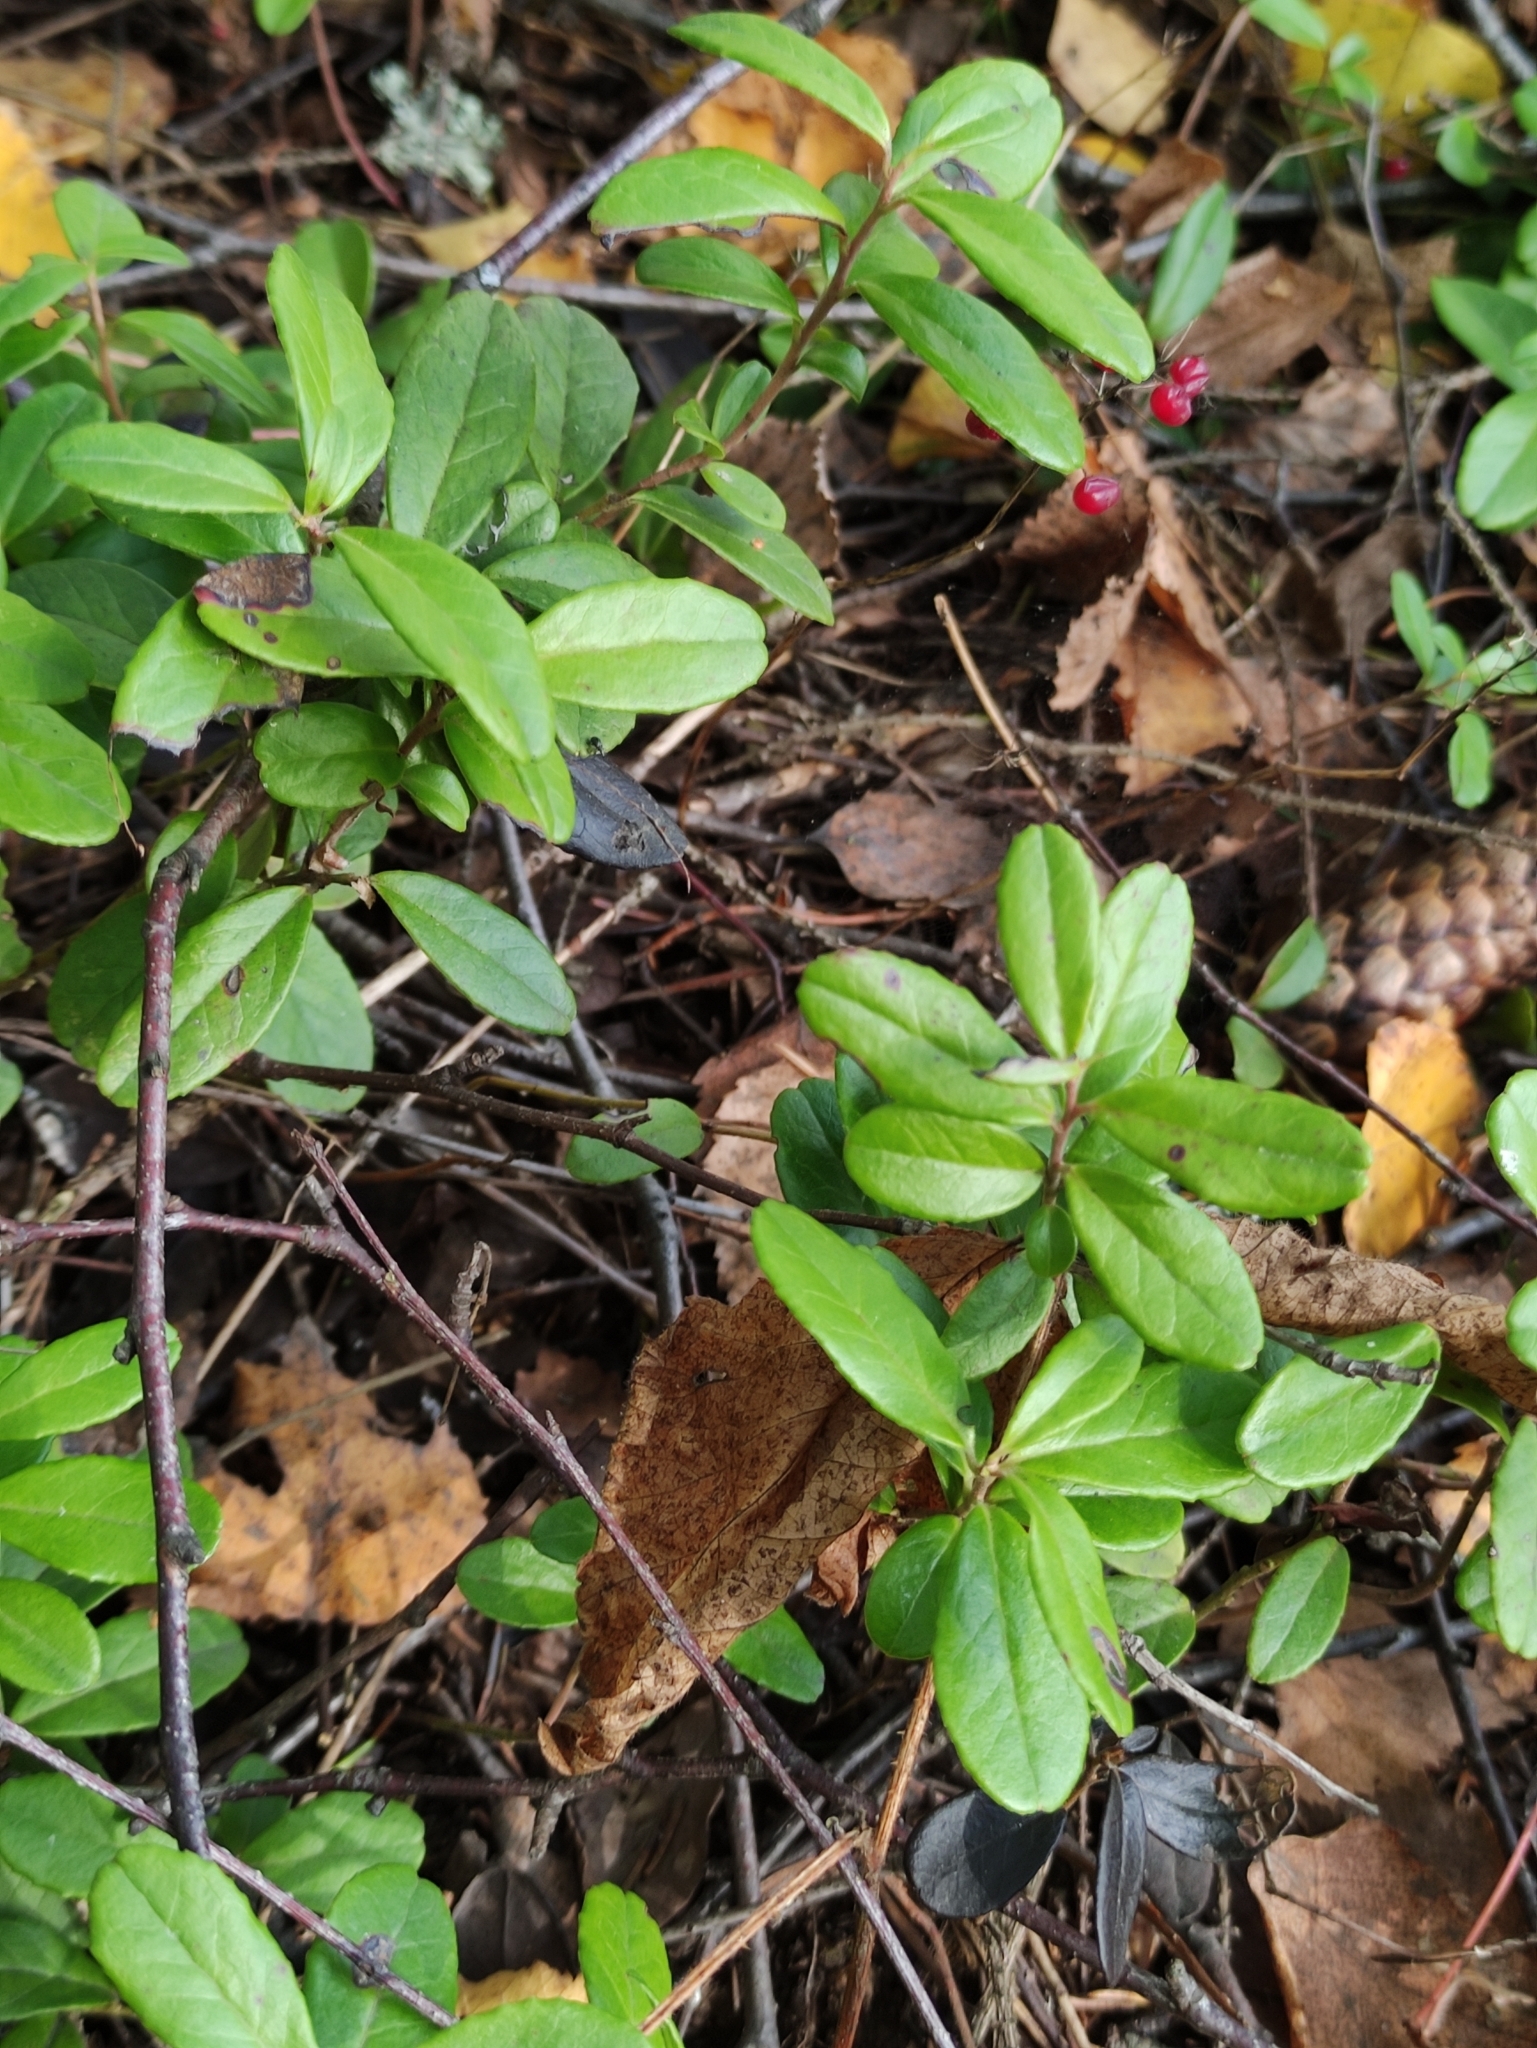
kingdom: Plantae
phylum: Tracheophyta
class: Magnoliopsida
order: Ericales
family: Ericaceae
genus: Vaccinium
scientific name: Vaccinium vitis-idaea
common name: Cowberry
